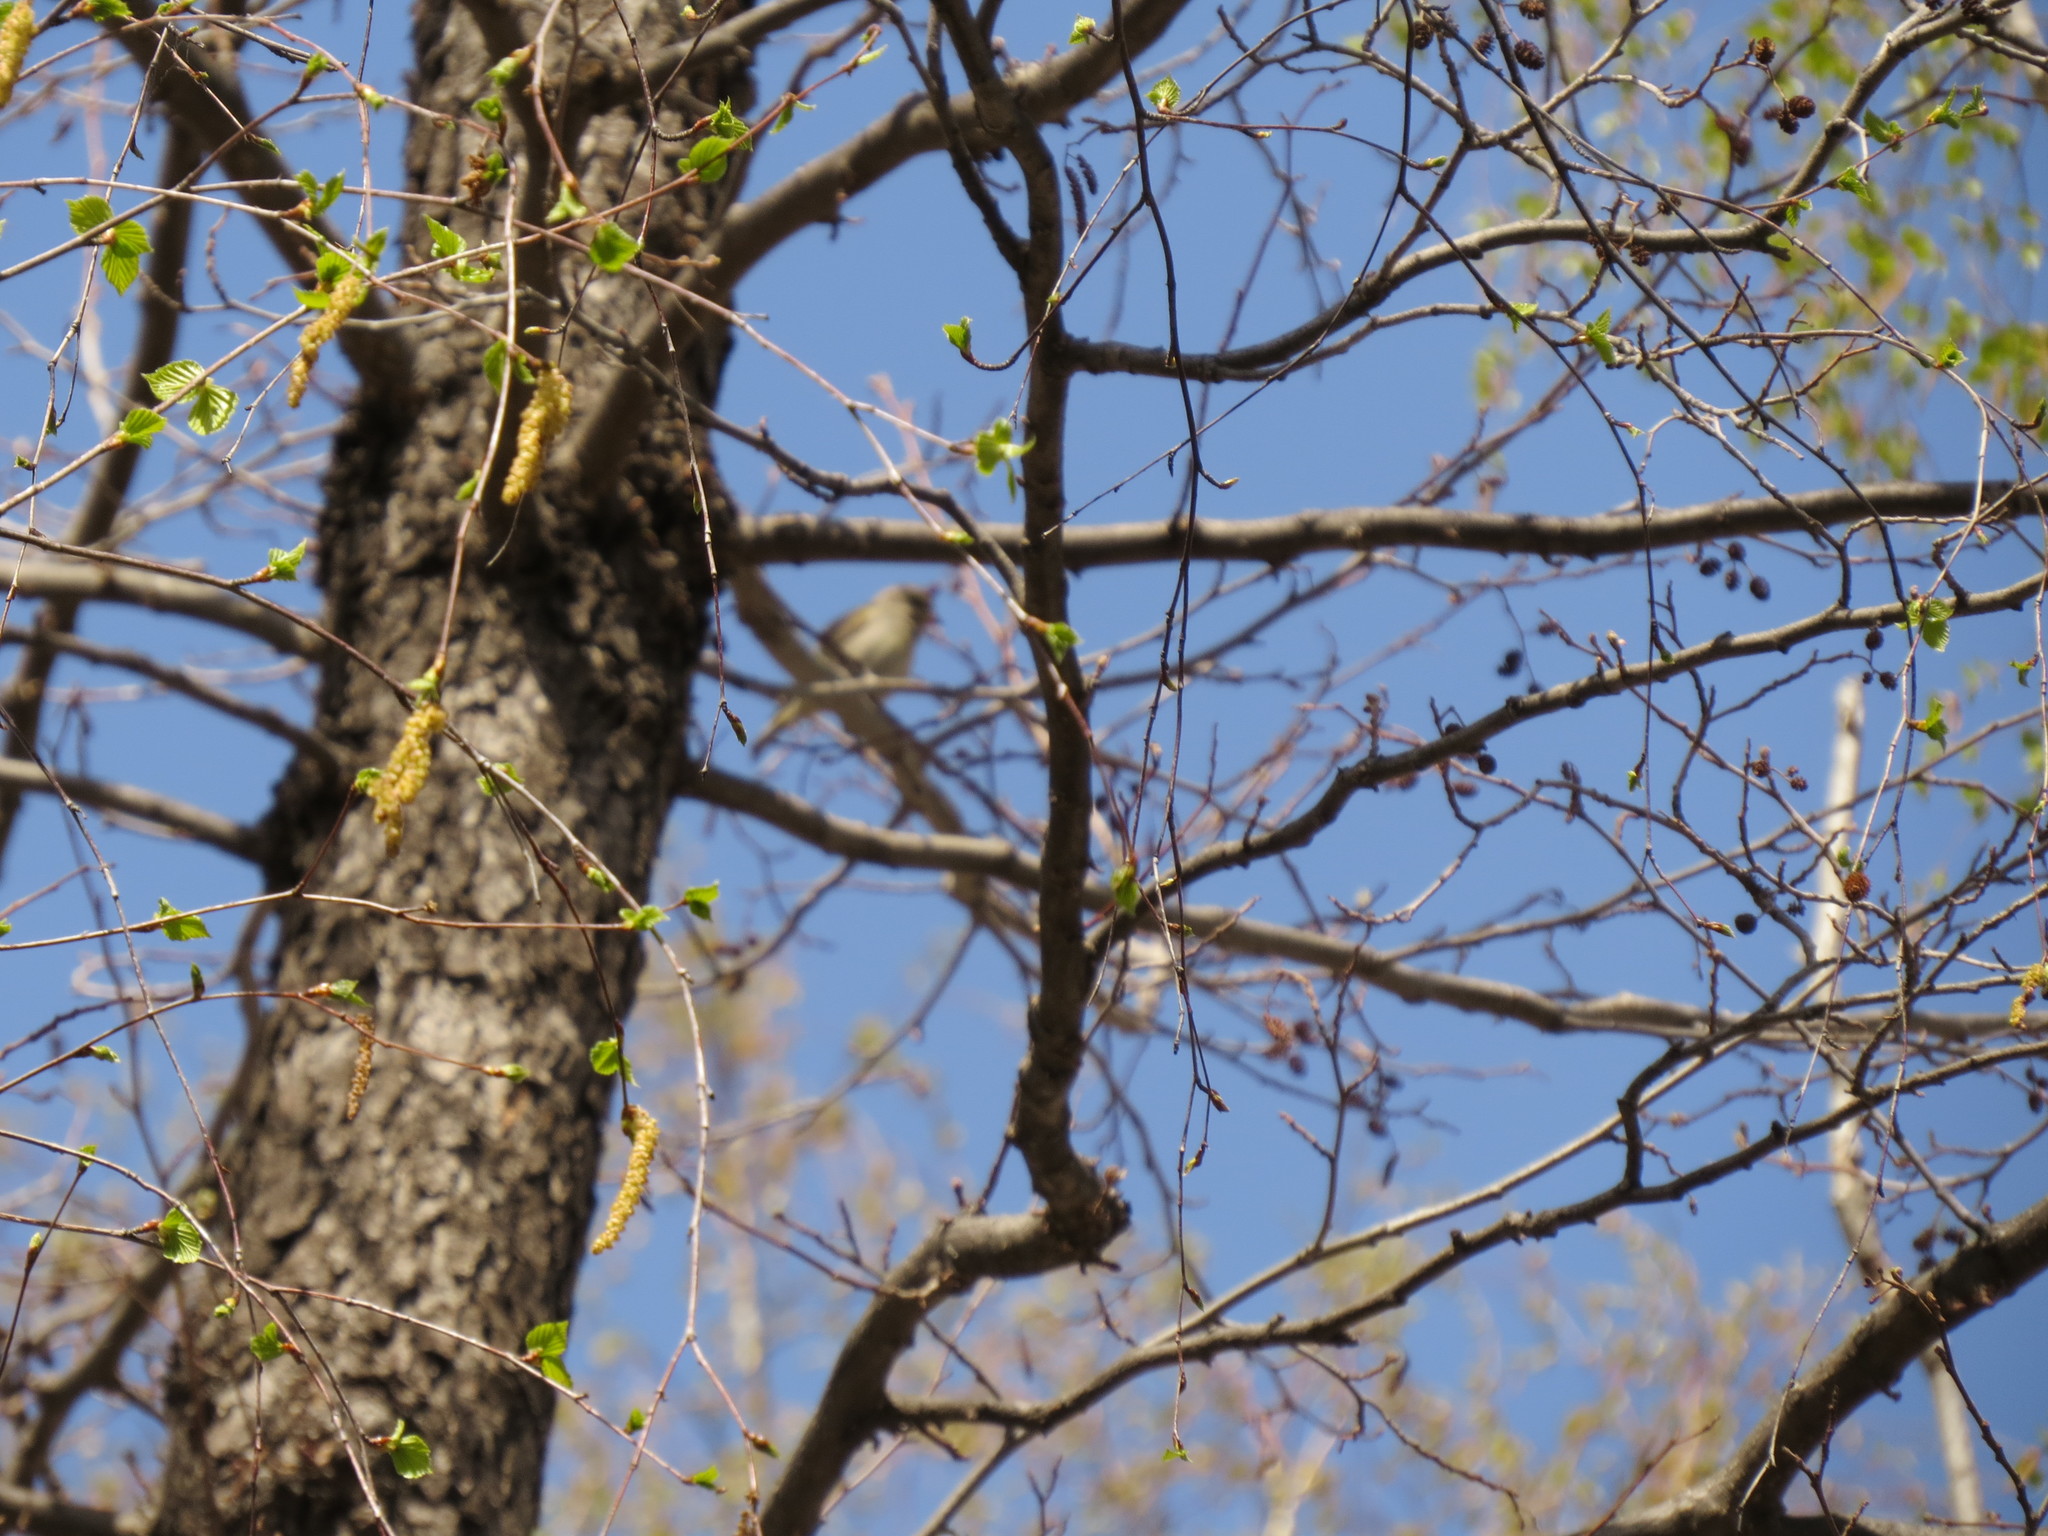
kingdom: Plantae
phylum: Tracheophyta
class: Liliopsida
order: Poales
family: Poaceae
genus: Chloris
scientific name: Chloris chloris
